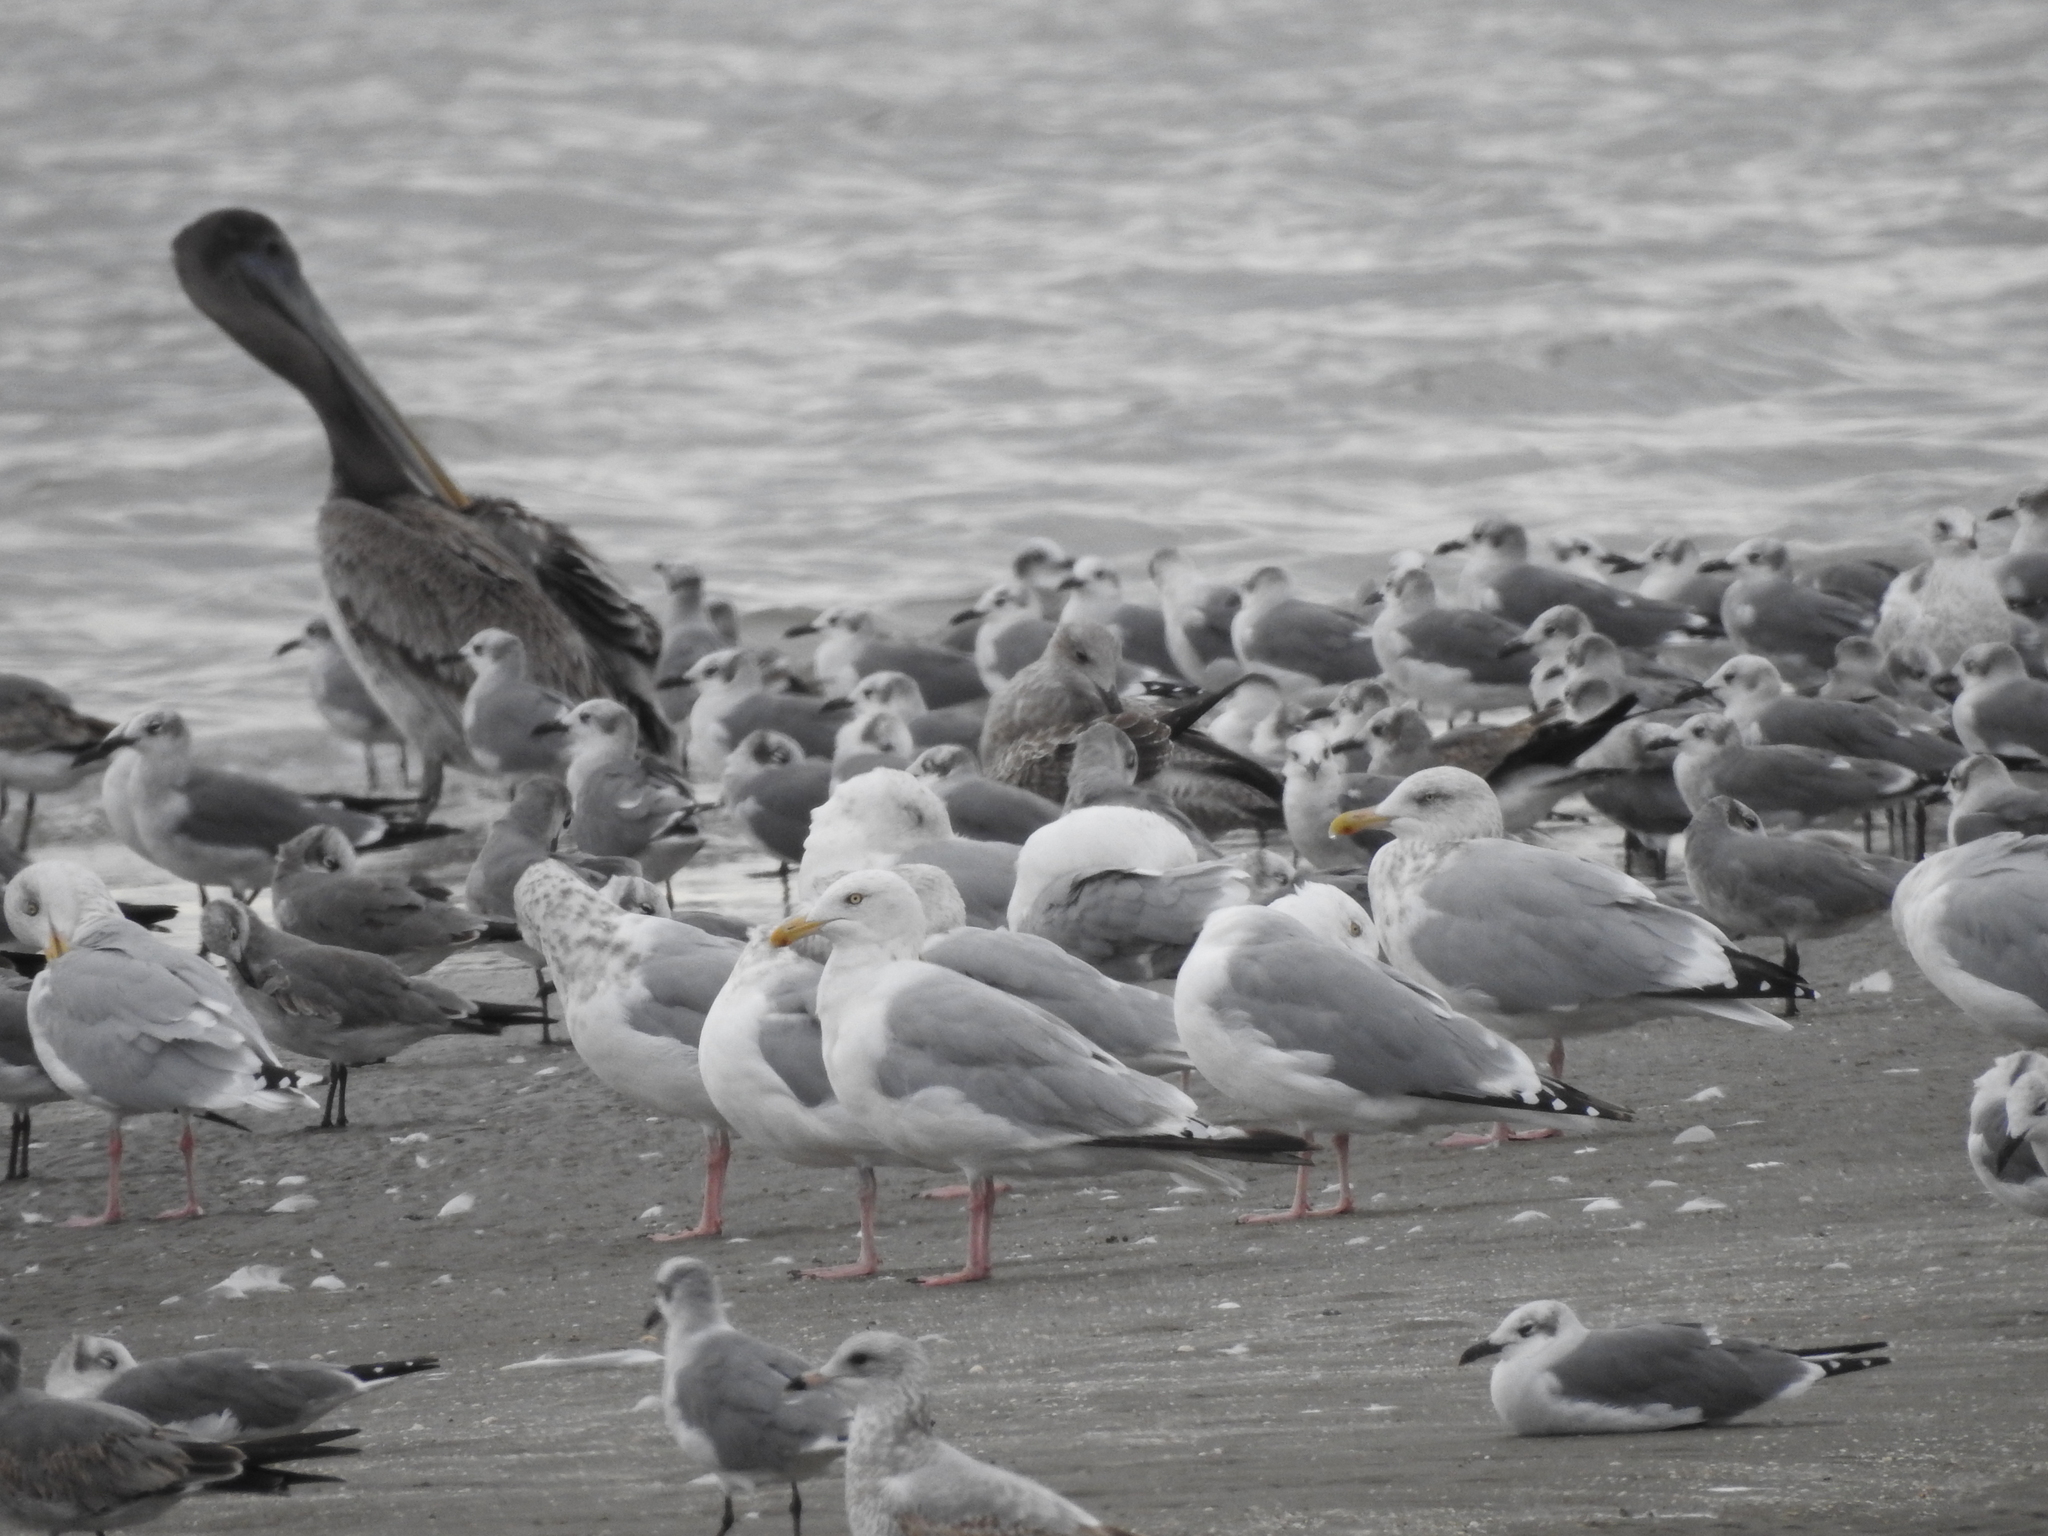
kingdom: Animalia
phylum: Chordata
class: Aves
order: Charadriiformes
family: Laridae
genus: Larus
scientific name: Larus argentatus
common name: Herring gull
